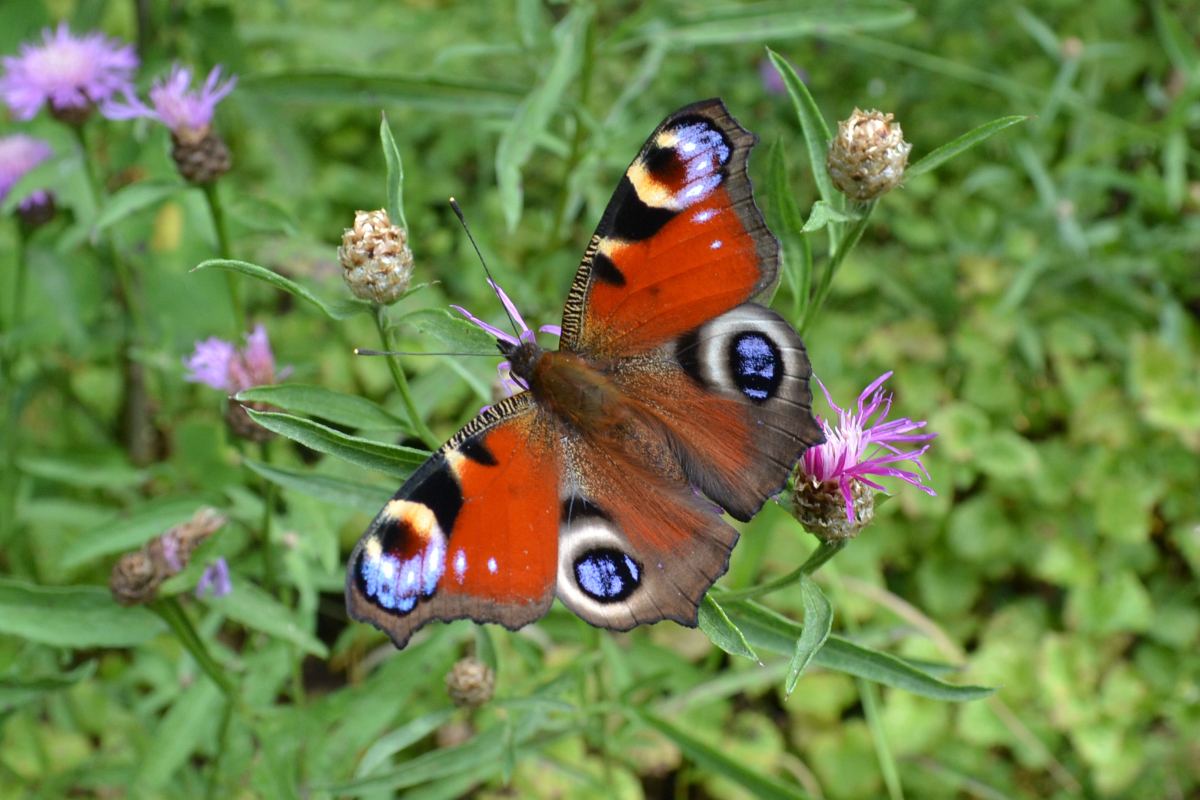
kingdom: Animalia
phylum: Arthropoda
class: Insecta
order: Lepidoptera
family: Nymphalidae
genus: Aglais
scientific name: Aglais io
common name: Peacock
